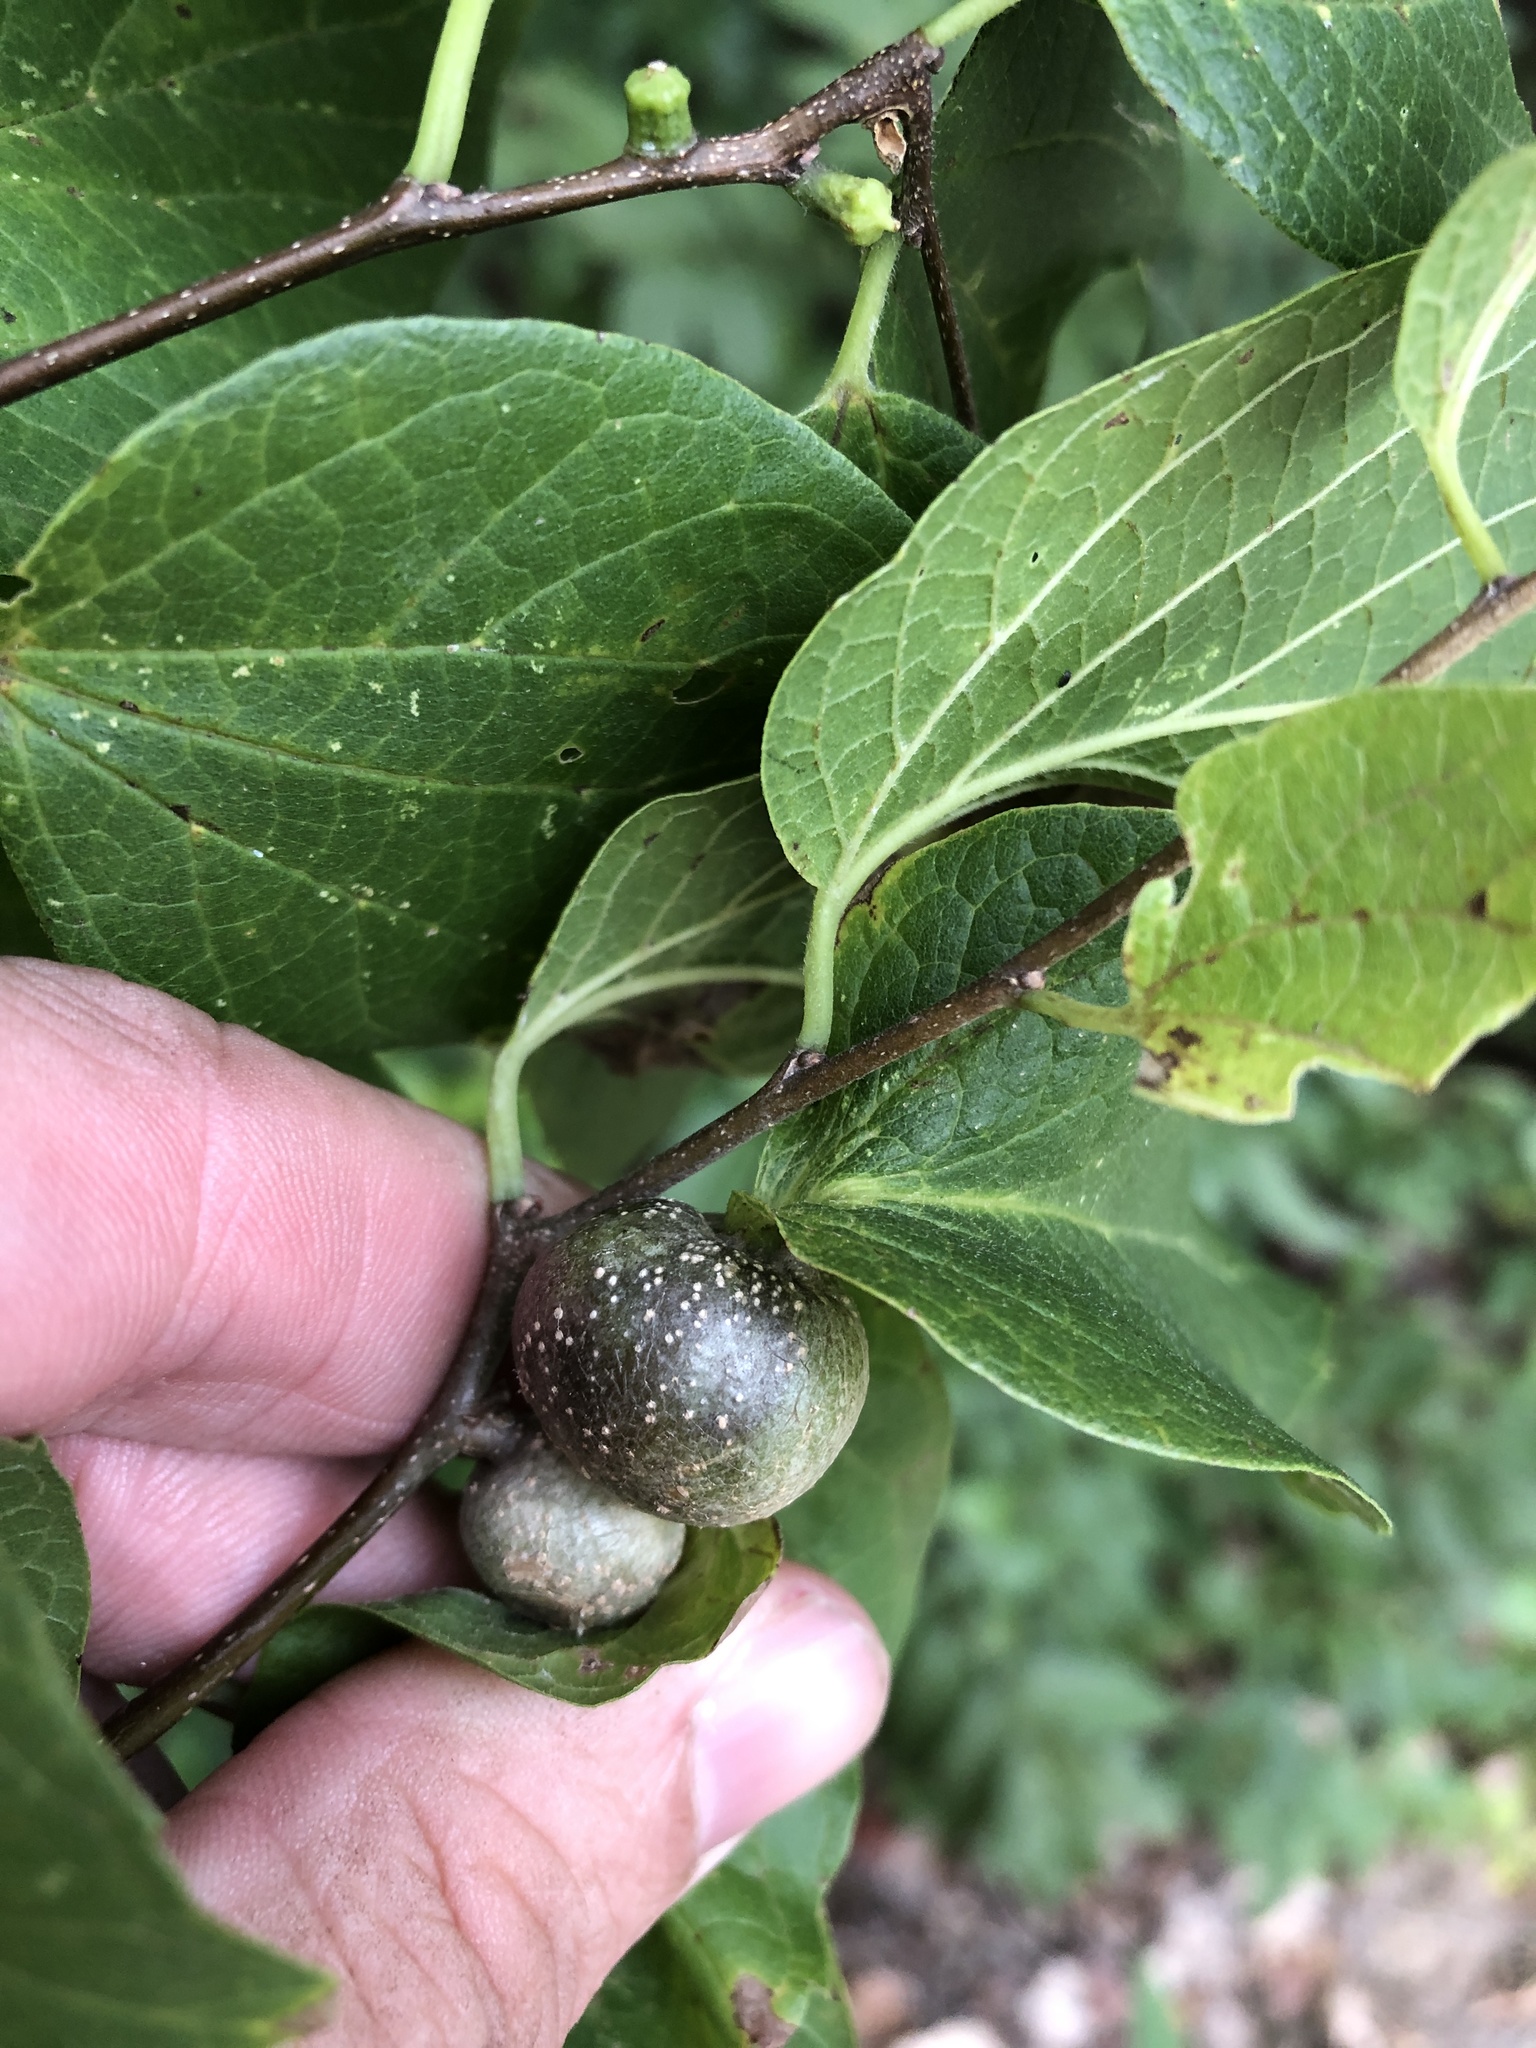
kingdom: Animalia
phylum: Arthropoda
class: Insecta
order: Hemiptera
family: Aphalaridae
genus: Pachypsylla
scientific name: Pachypsylla venusta
